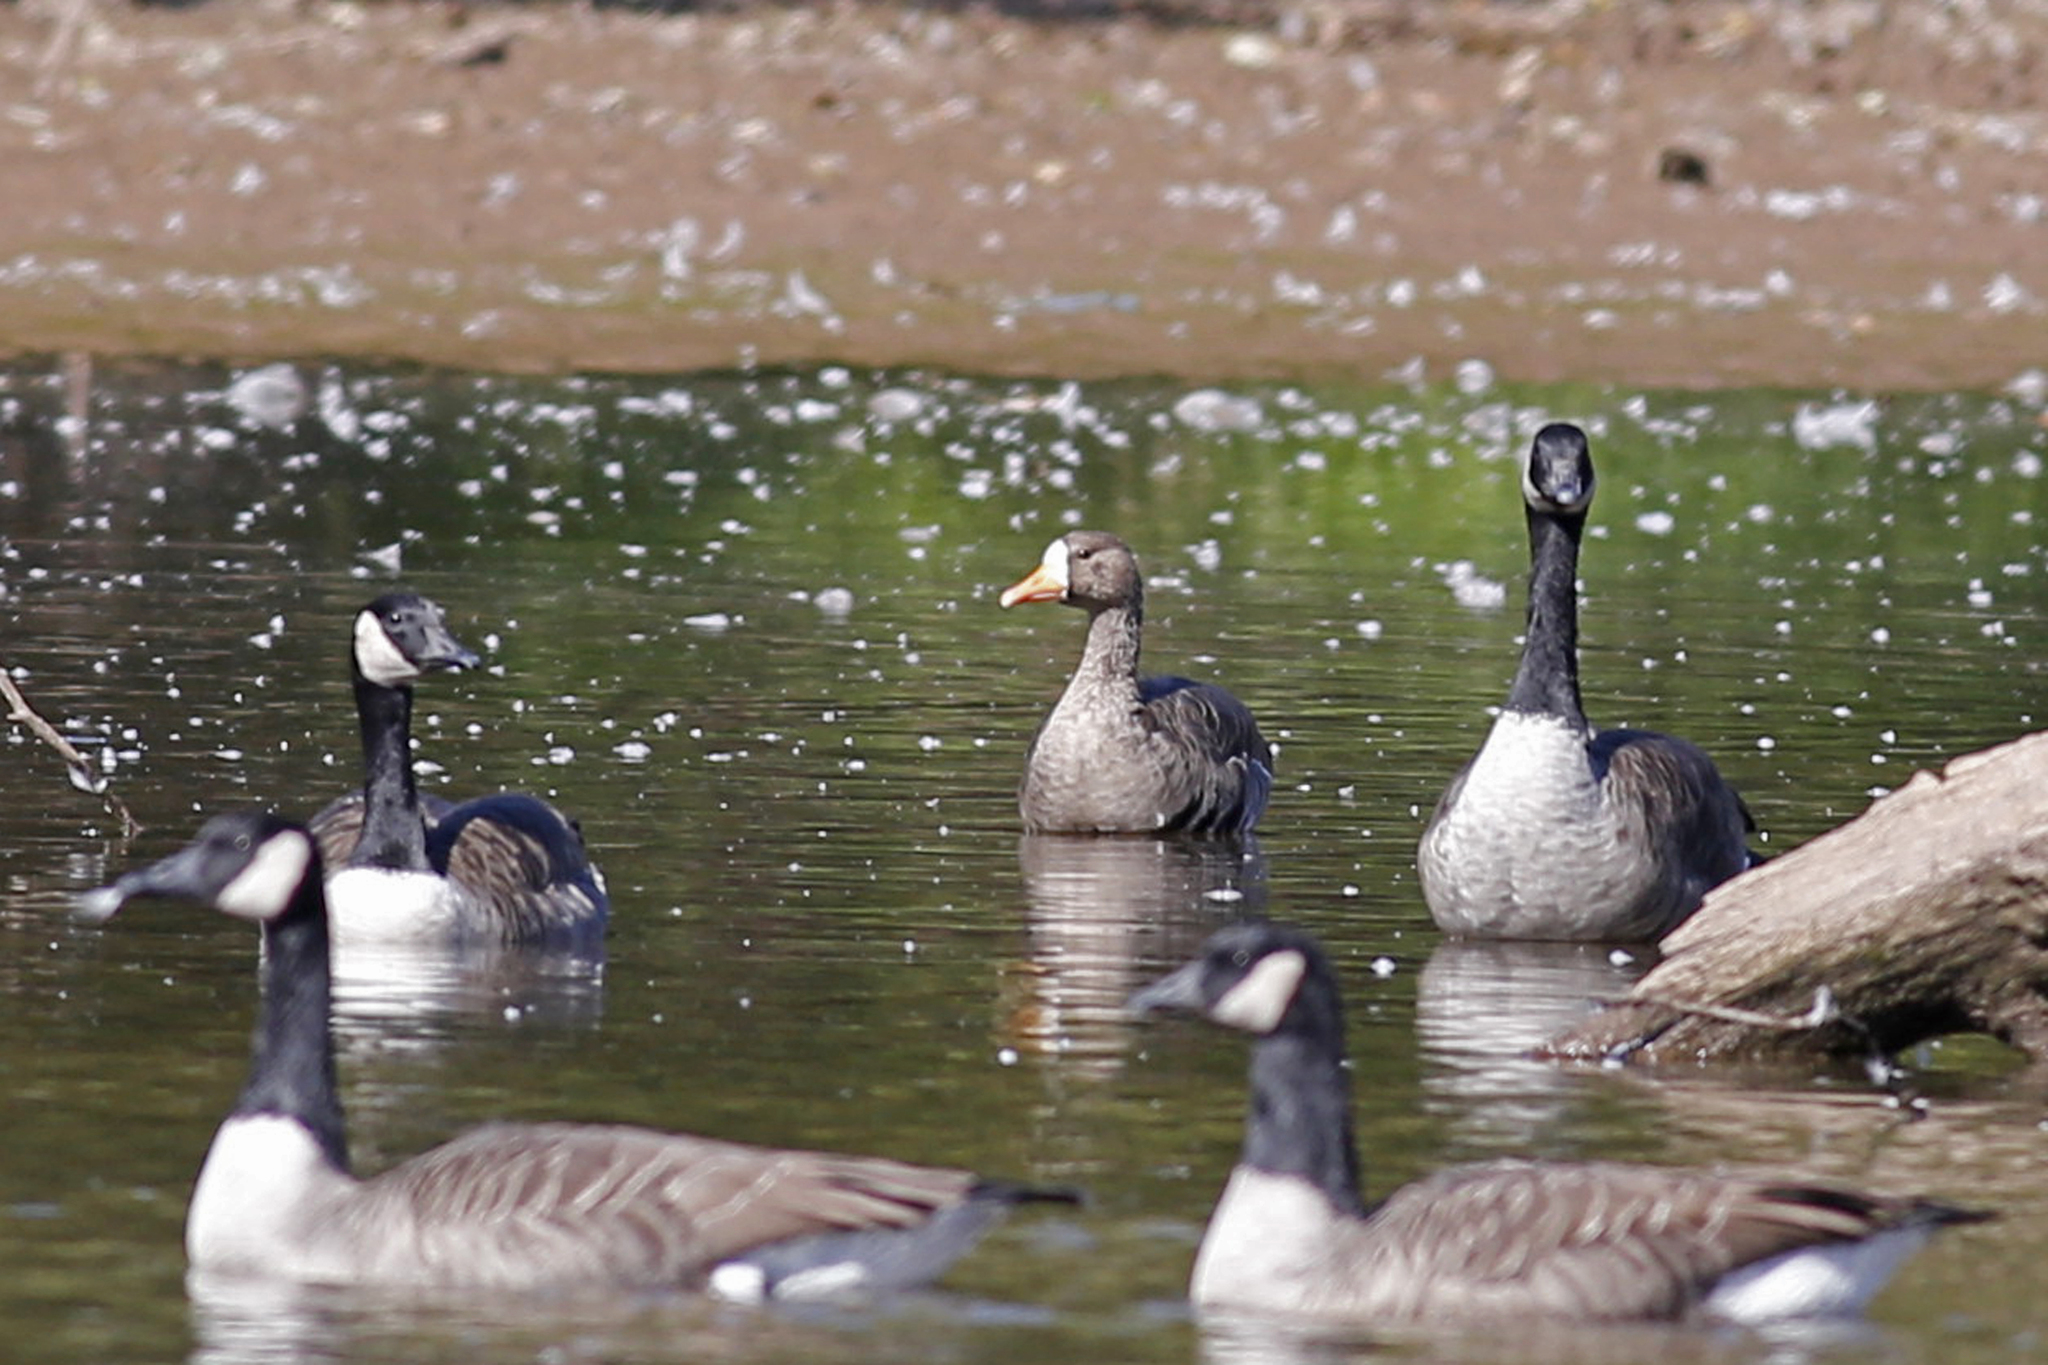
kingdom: Animalia
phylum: Chordata
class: Aves
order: Anseriformes
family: Anatidae
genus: Anser
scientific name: Anser albifrons
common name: Greater white-fronted goose
